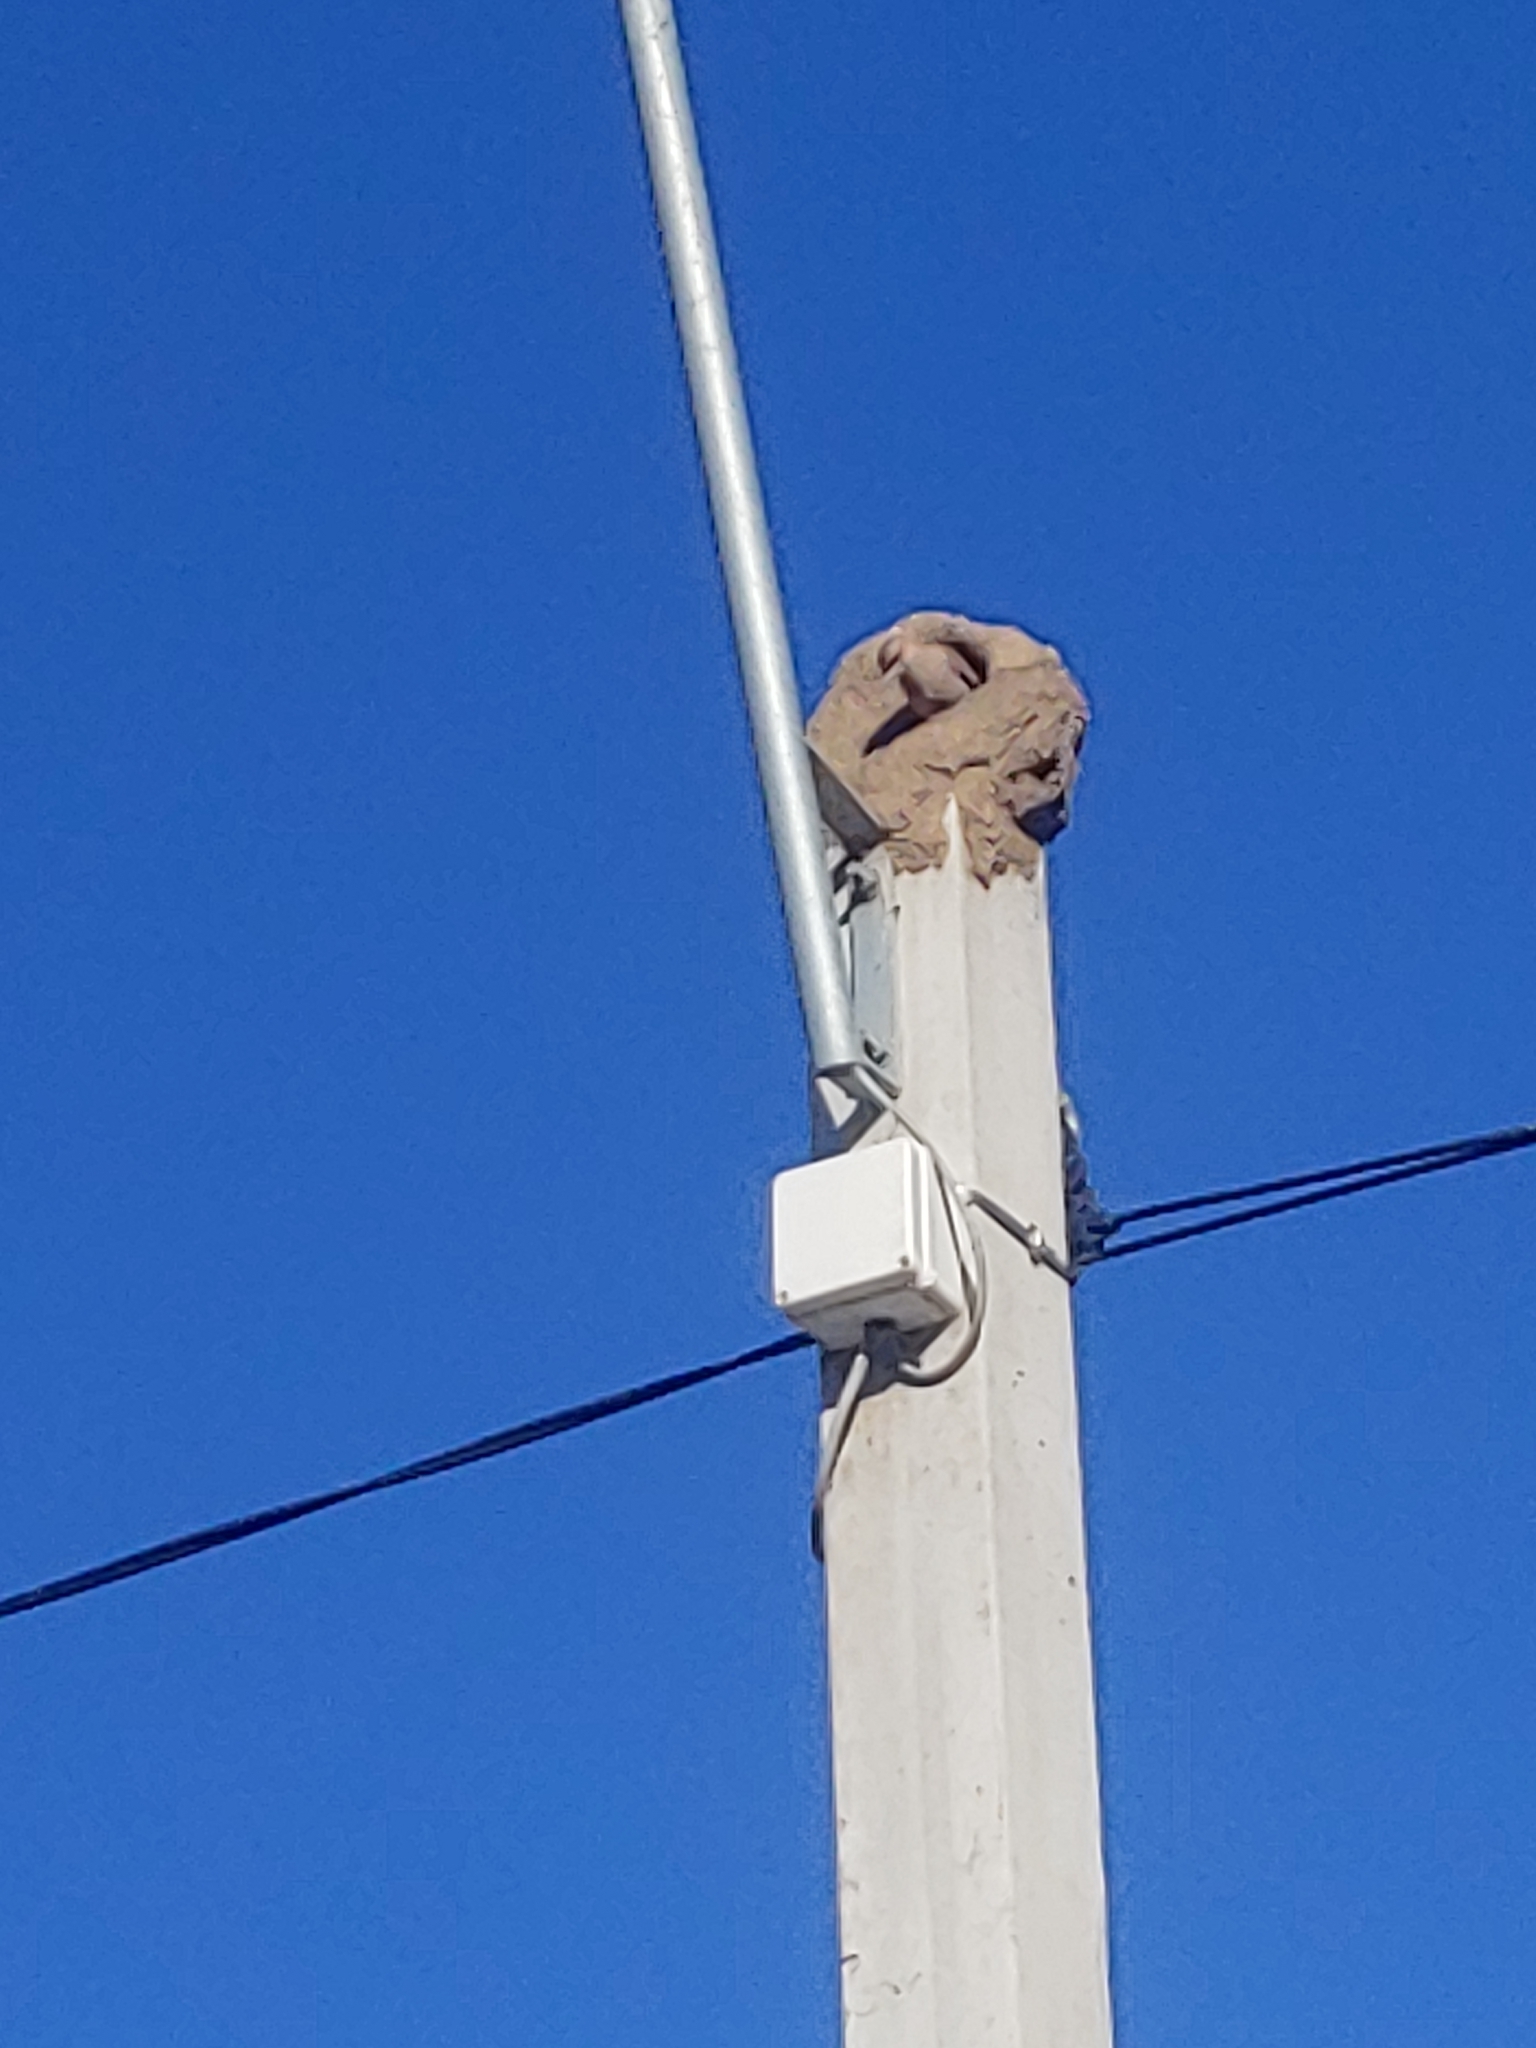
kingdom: Animalia
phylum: Chordata
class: Aves
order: Passeriformes
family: Furnariidae
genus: Furnarius
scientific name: Furnarius rufus
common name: Rufous hornero
